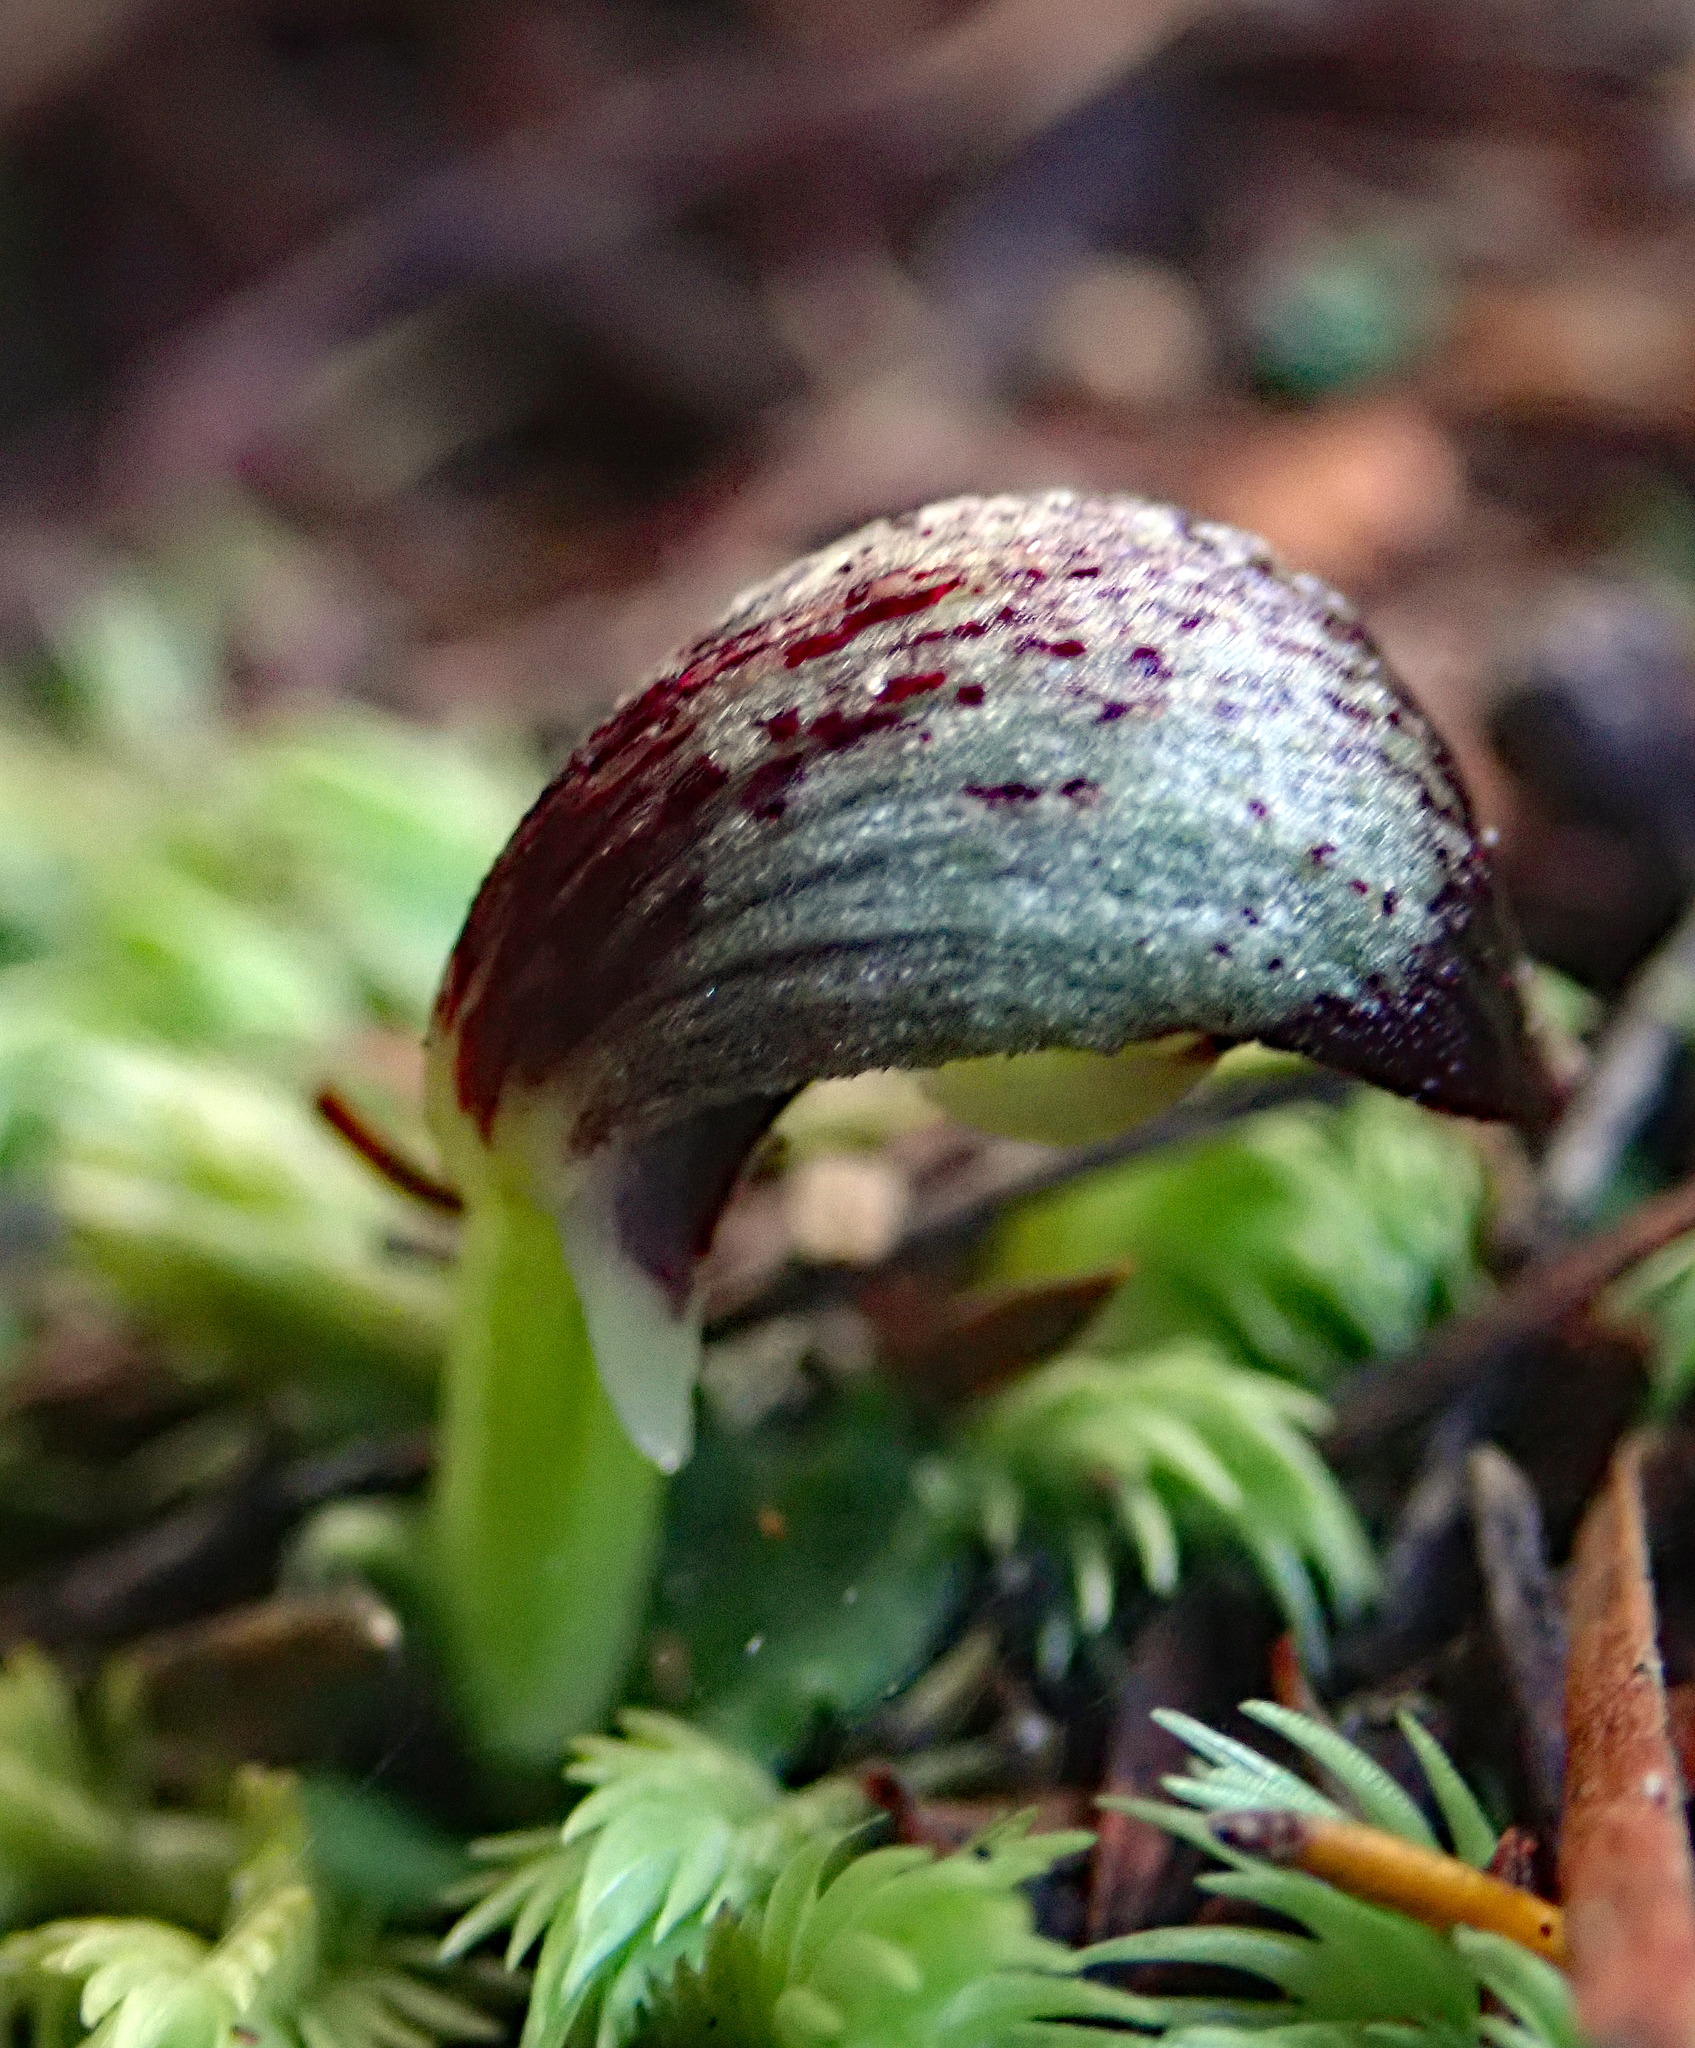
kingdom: Plantae
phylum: Tracheophyta
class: Liliopsida
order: Asparagales
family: Orchidaceae
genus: Corybas
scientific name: Corybas cheesemanii
